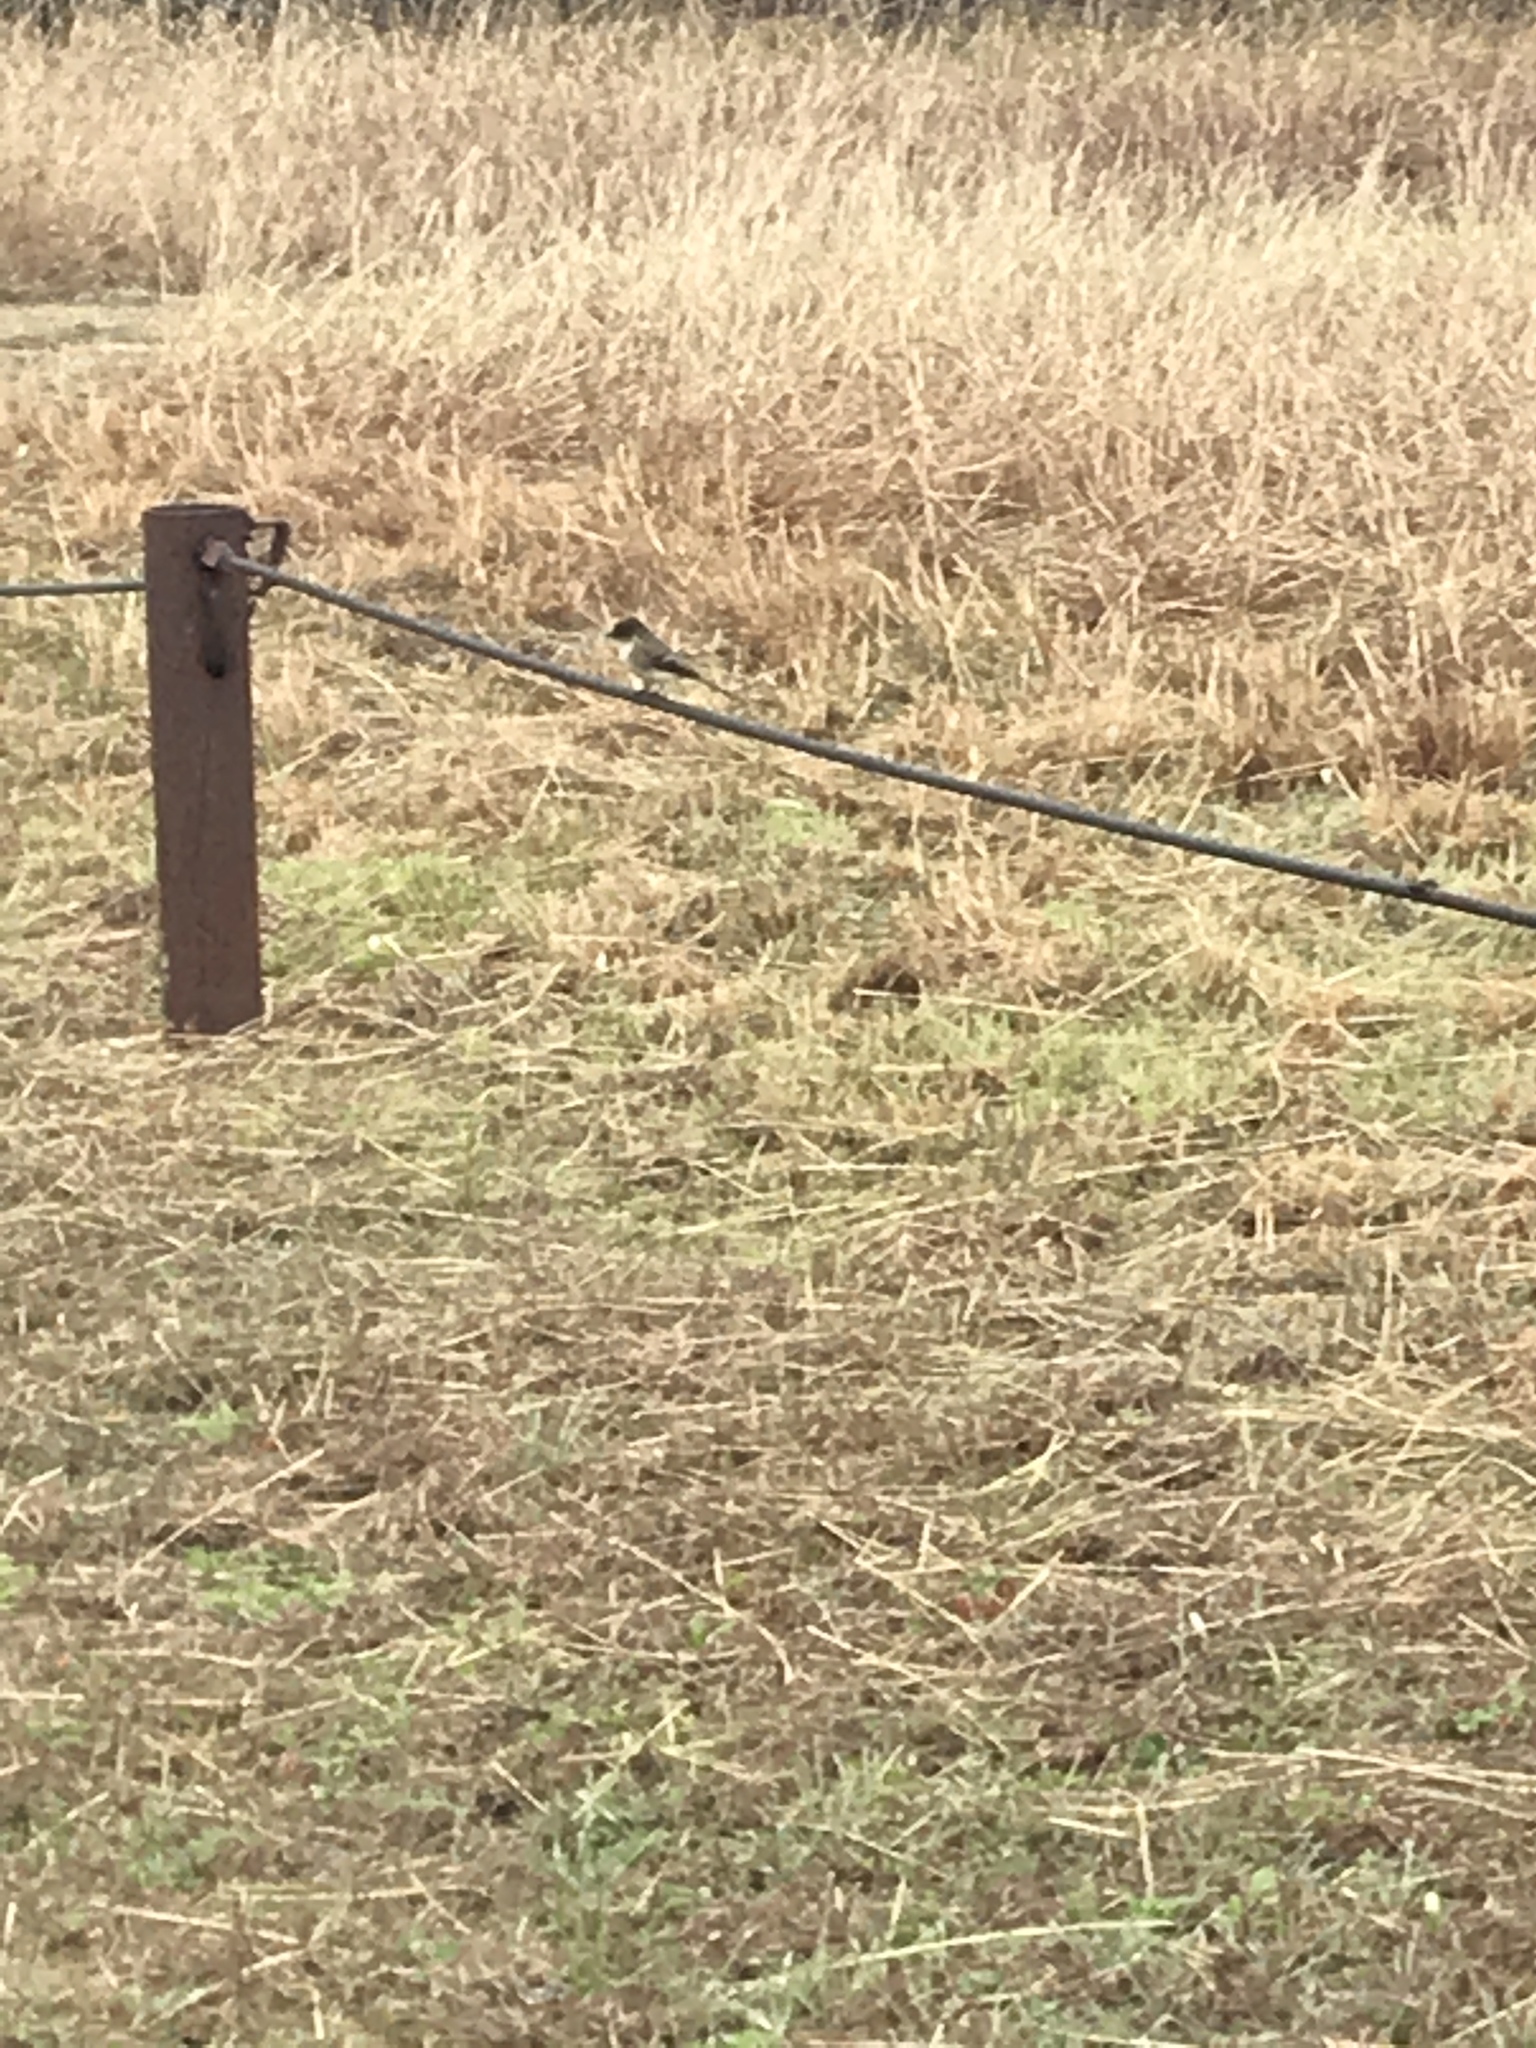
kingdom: Animalia
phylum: Chordata
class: Aves
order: Passeriformes
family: Tyrannidae
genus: Sayornis
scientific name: Sayornis phoebe
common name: Eastern phoebe
